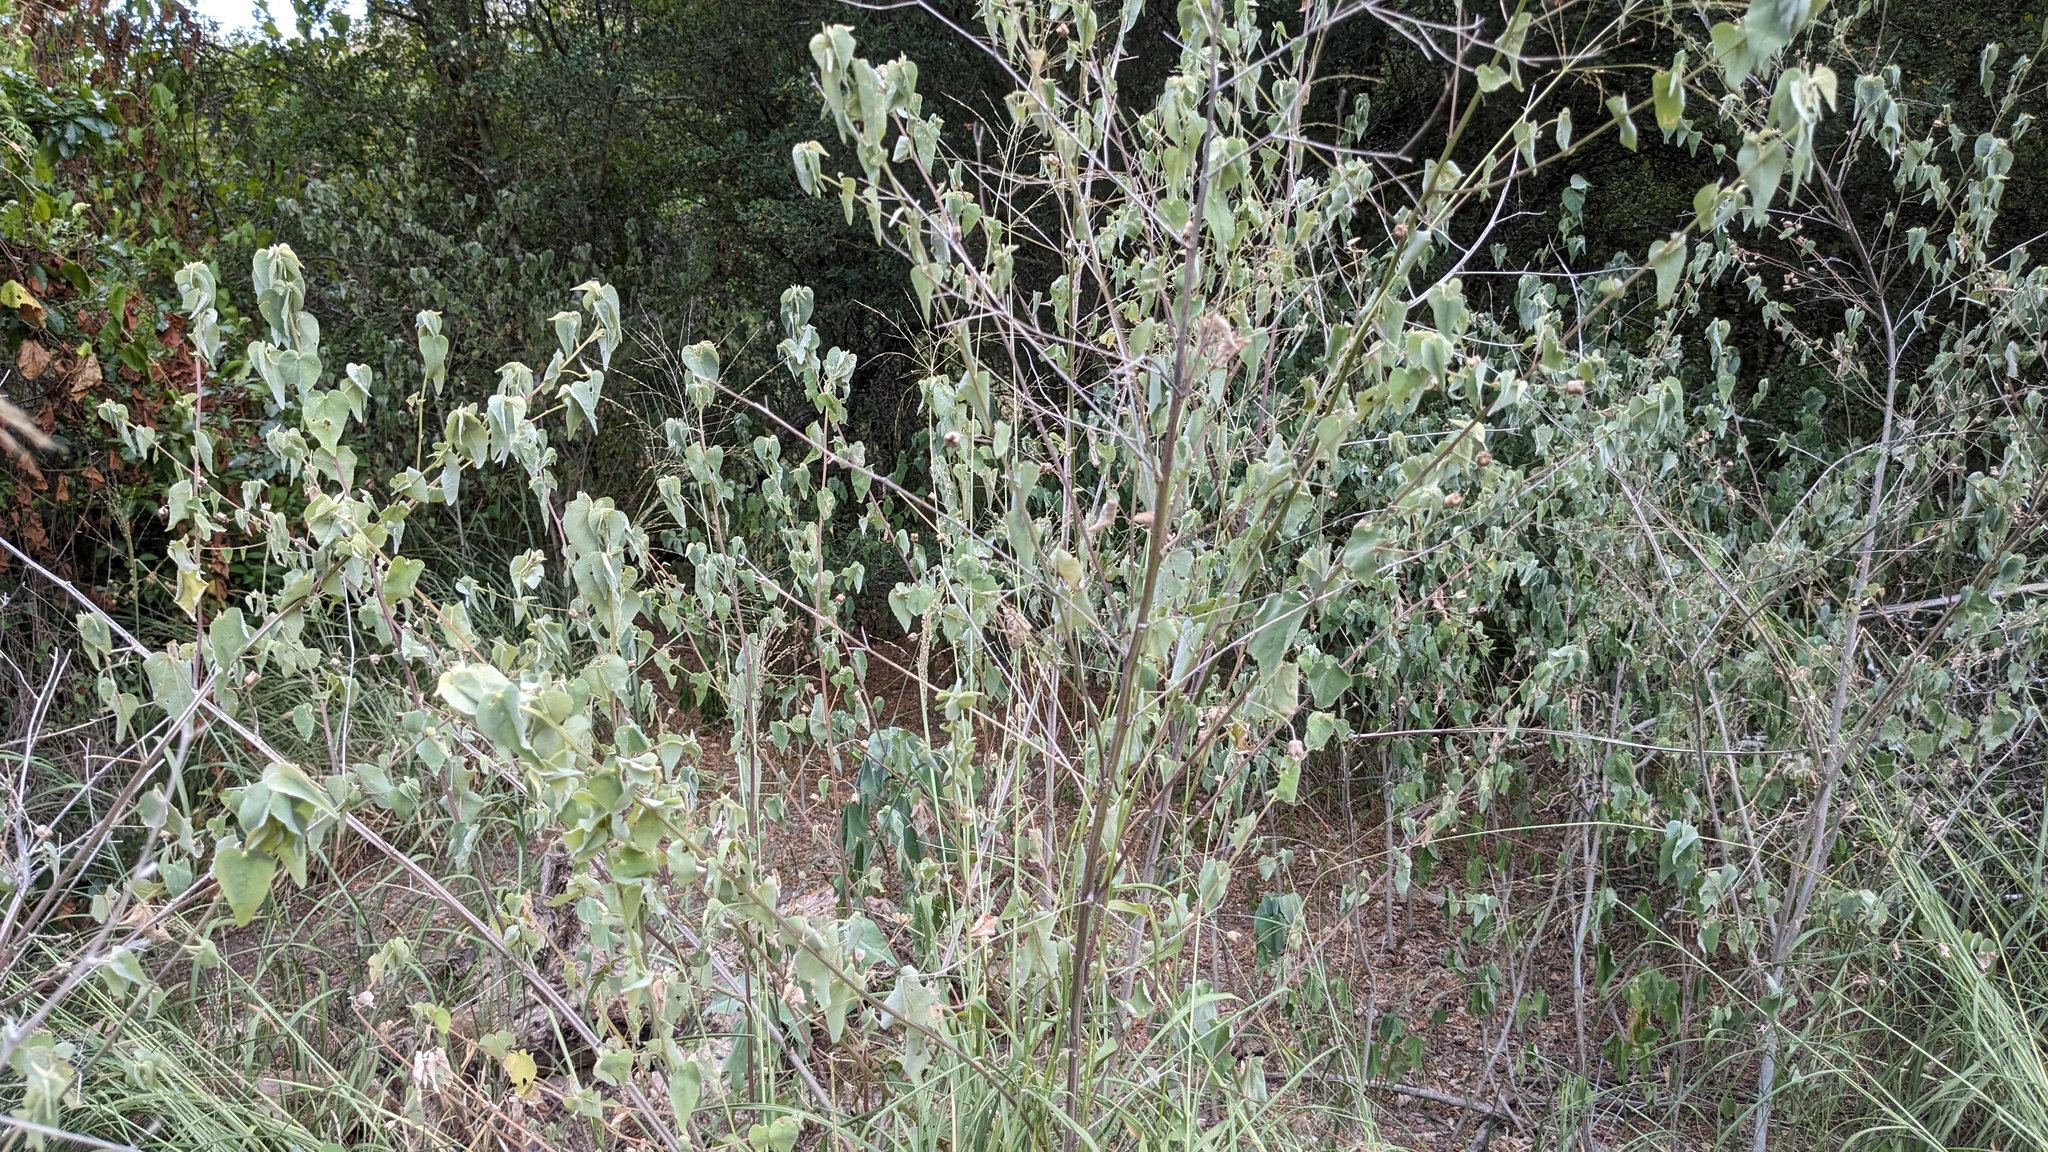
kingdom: Plantae
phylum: Tracheophyta
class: Magnoliopsida
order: Malvales
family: Malvaceae
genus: Abutilon
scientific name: Abutilon trisulcatum
